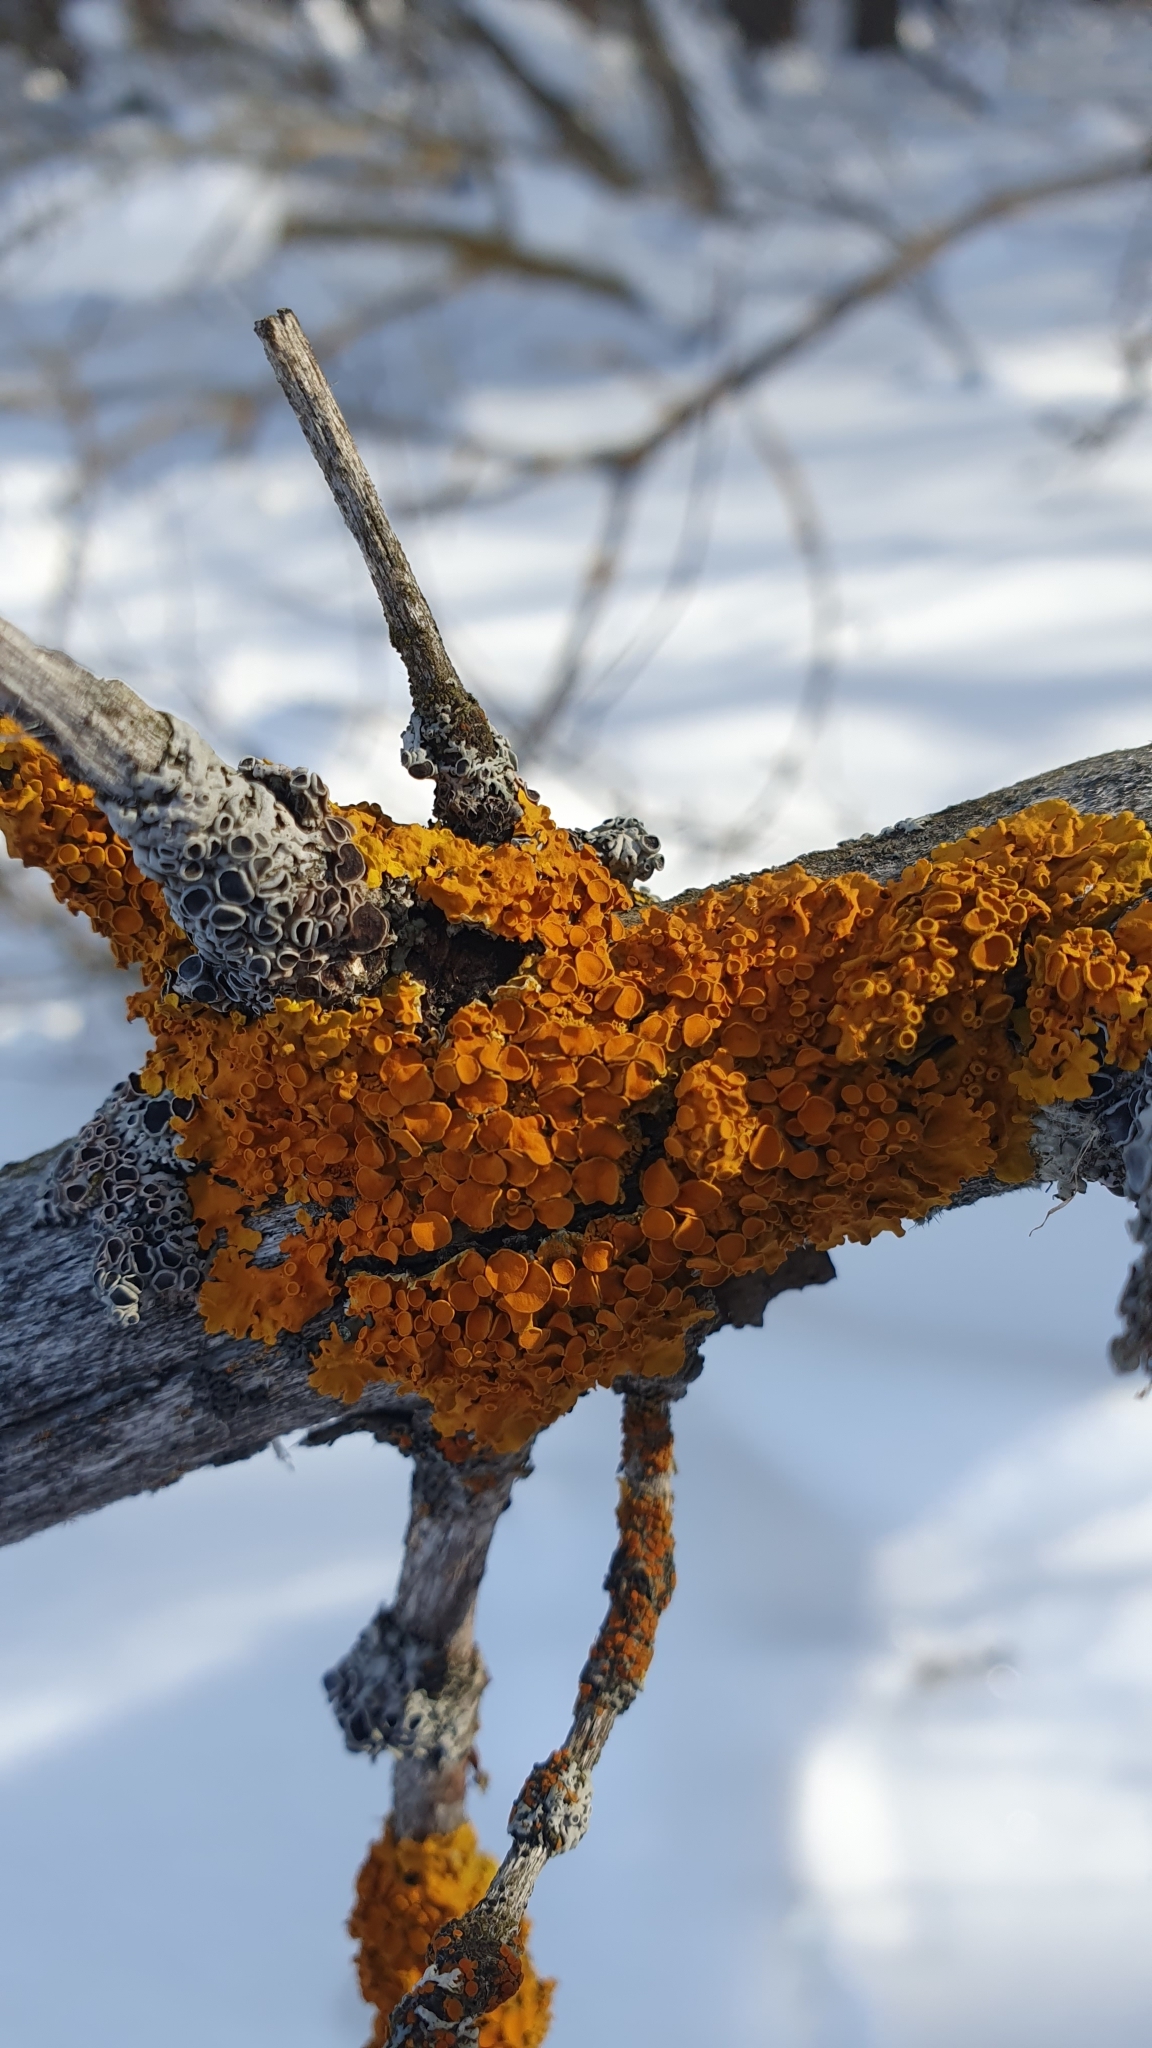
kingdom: Fungi
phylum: Ascomycota
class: Lecanoromycetes
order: Teloschistales
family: Teloschistaceae
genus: Xanthoria
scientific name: Xanthoria parietina
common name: Common orange lichen
